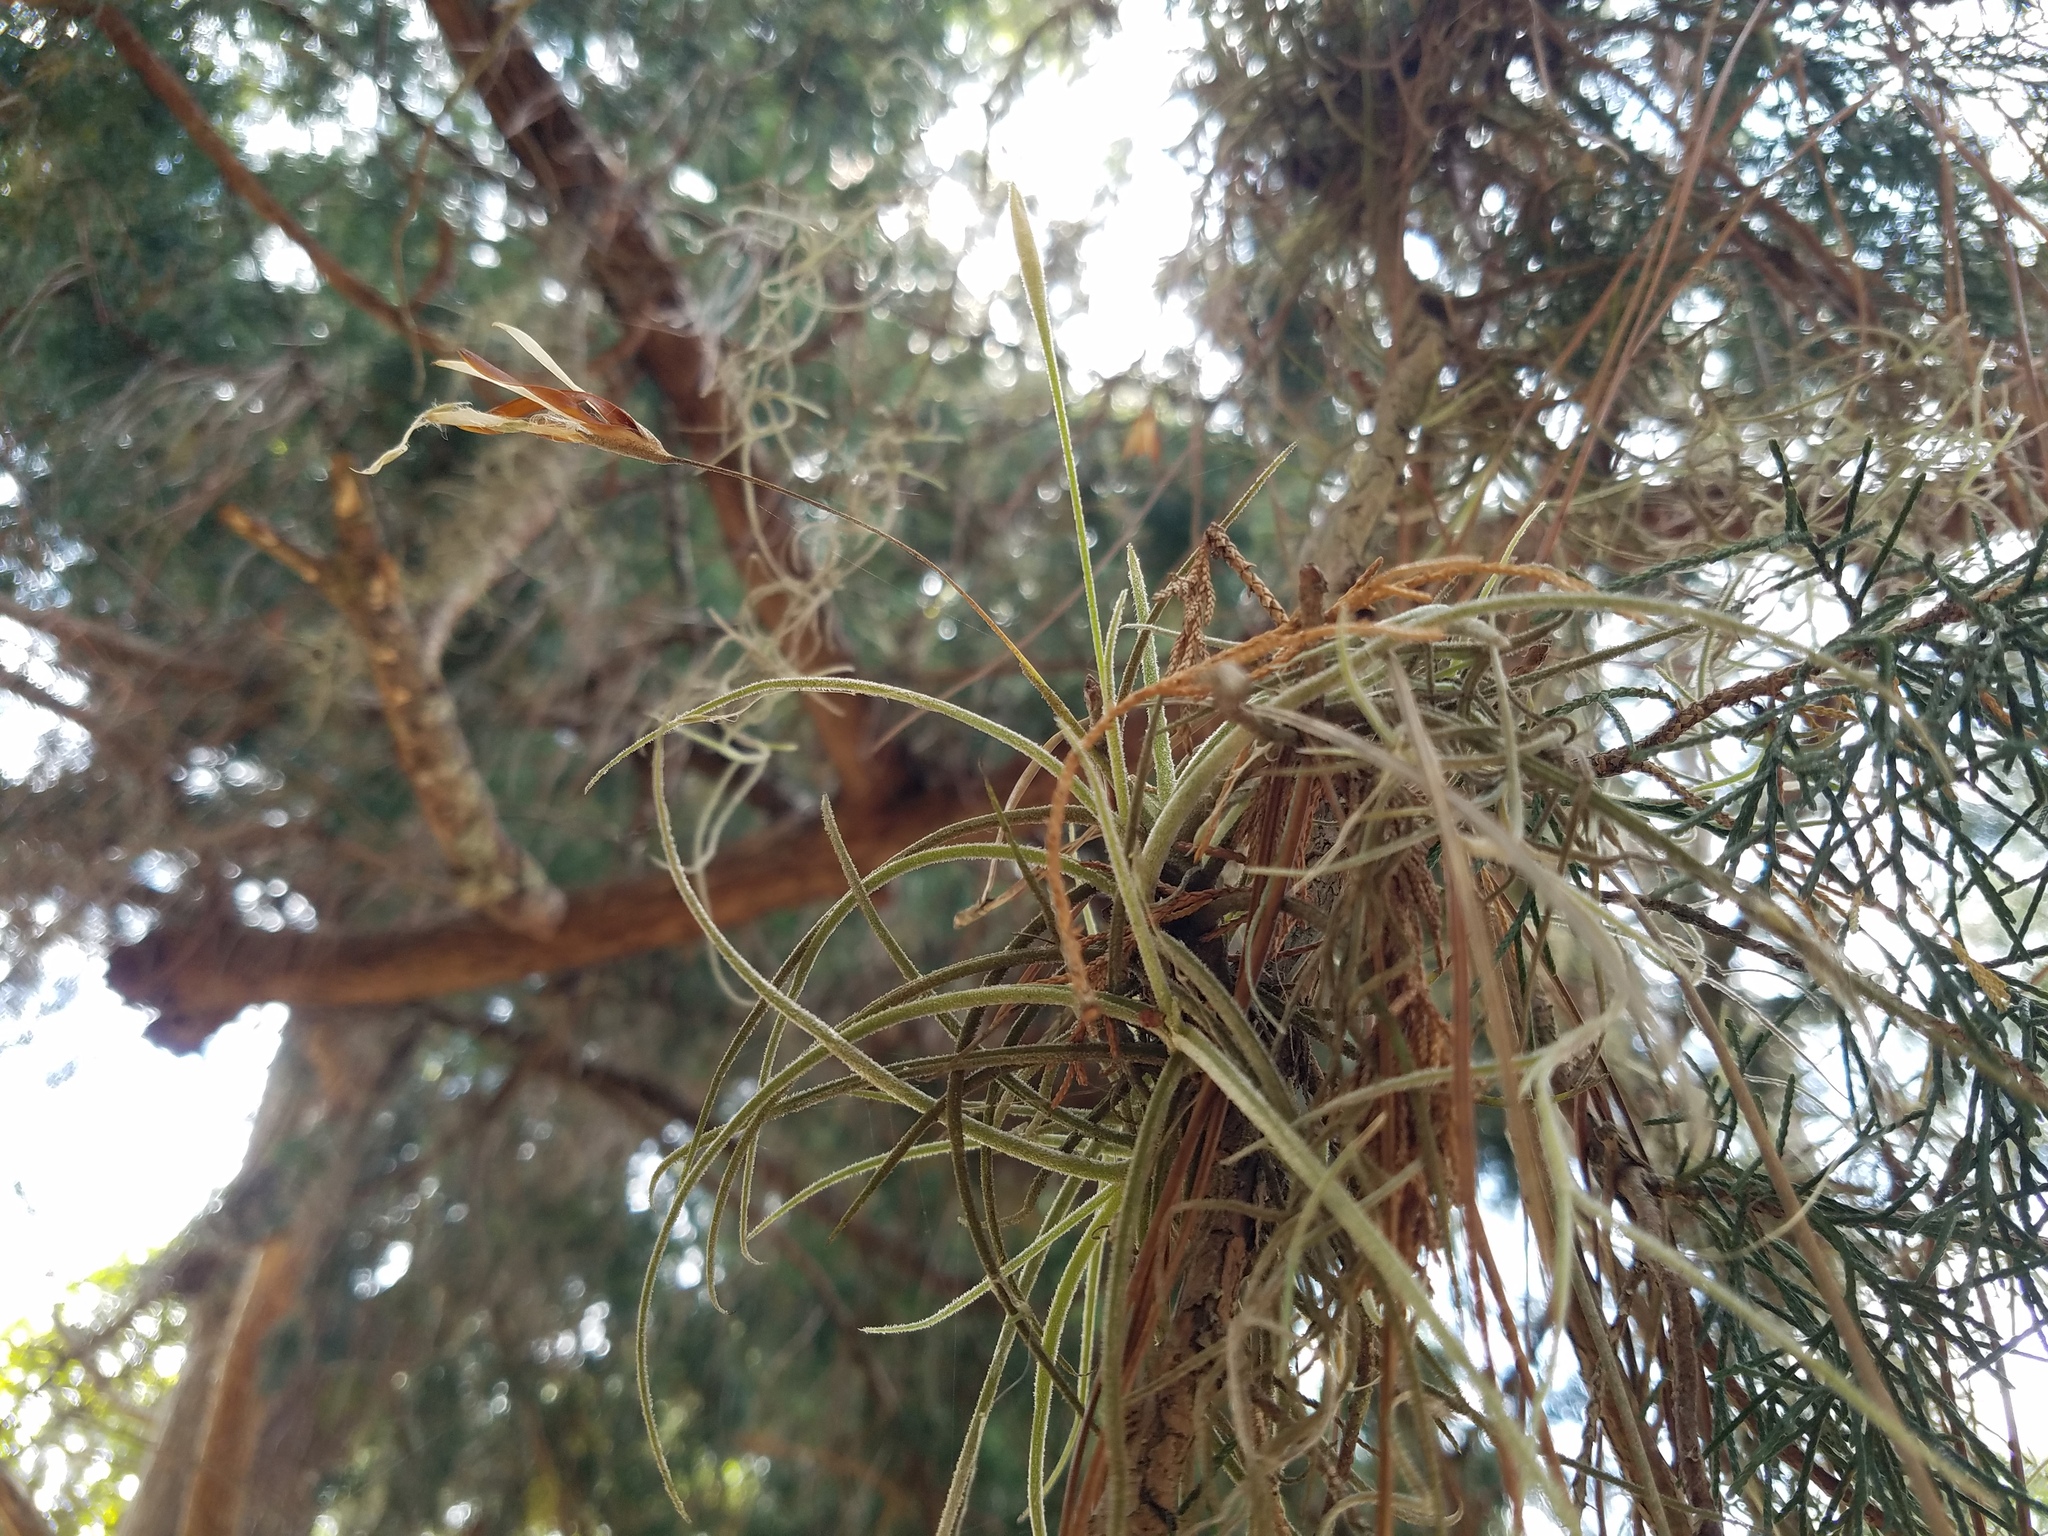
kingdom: Plantae
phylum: Tracheophyta
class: Liliopsida
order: Poales
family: Bromeliaceae
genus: Tillandsia
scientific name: Tillandsia recurvata
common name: Small ballmoss
